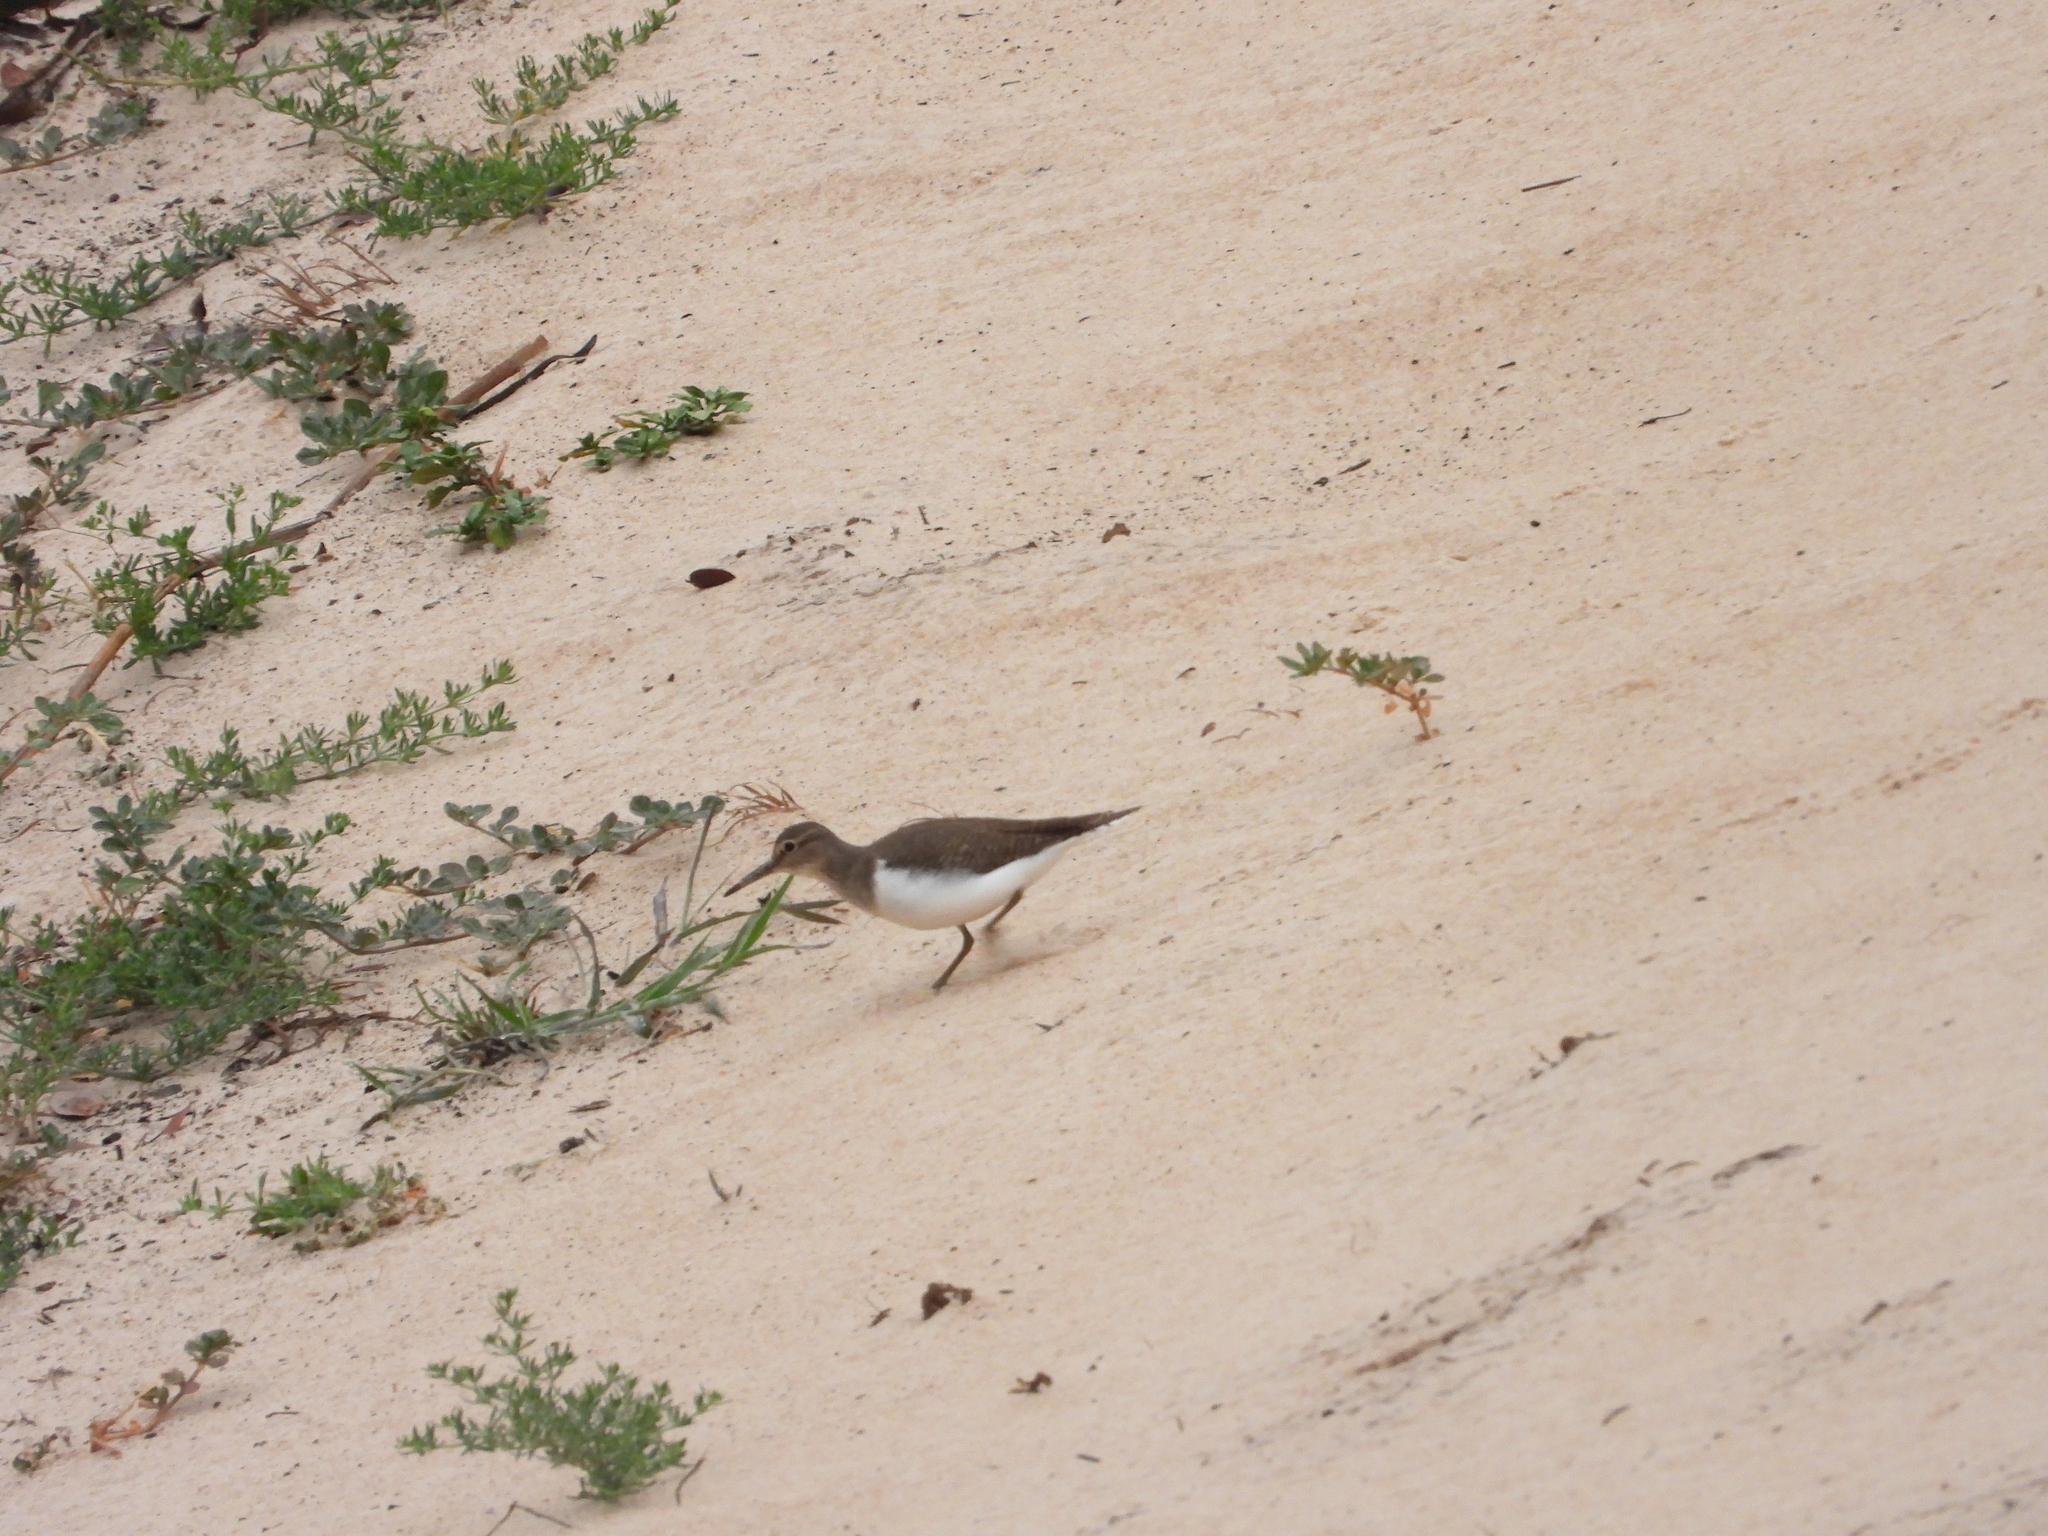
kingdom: Animalia
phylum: Chordata
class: Aves
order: Charadriiformes
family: Scolopacidae
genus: Actitis
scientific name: Actitis hypoleucos
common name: Common sandpiper
